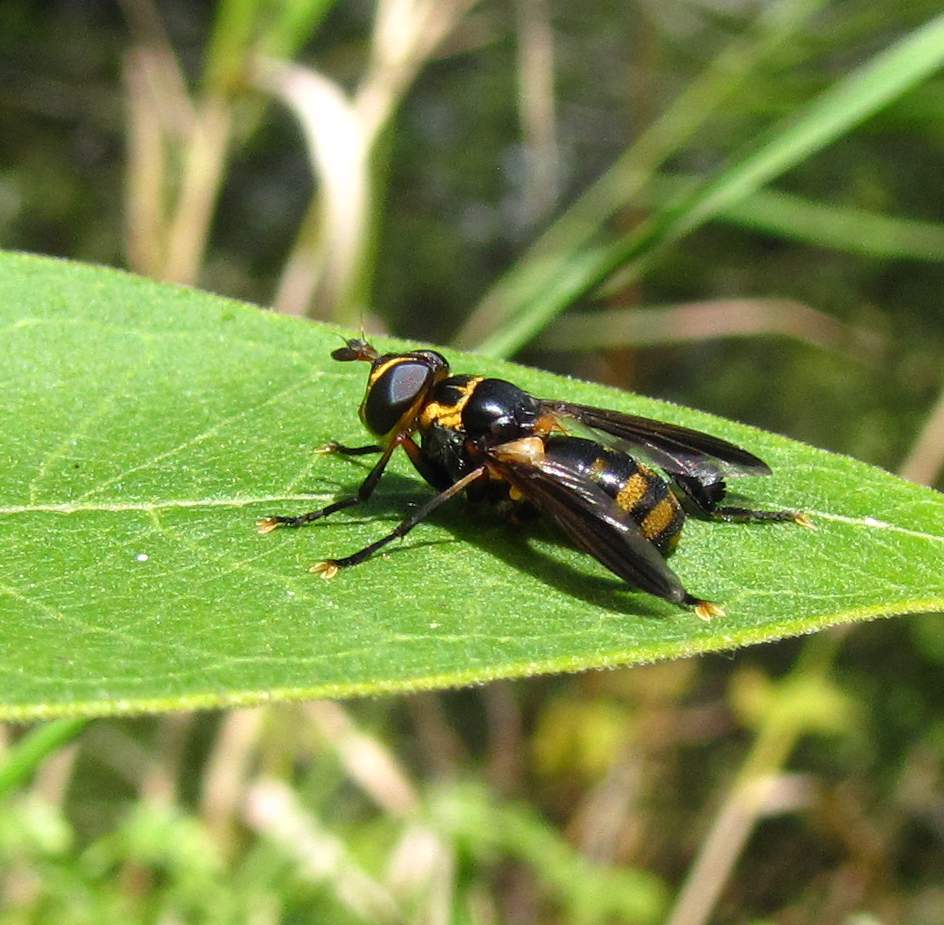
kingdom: Animalia
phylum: Arthropoda
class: Insecta
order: Diptera
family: Tachinidae
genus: Trichopoda
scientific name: Trichopoda plumipes
